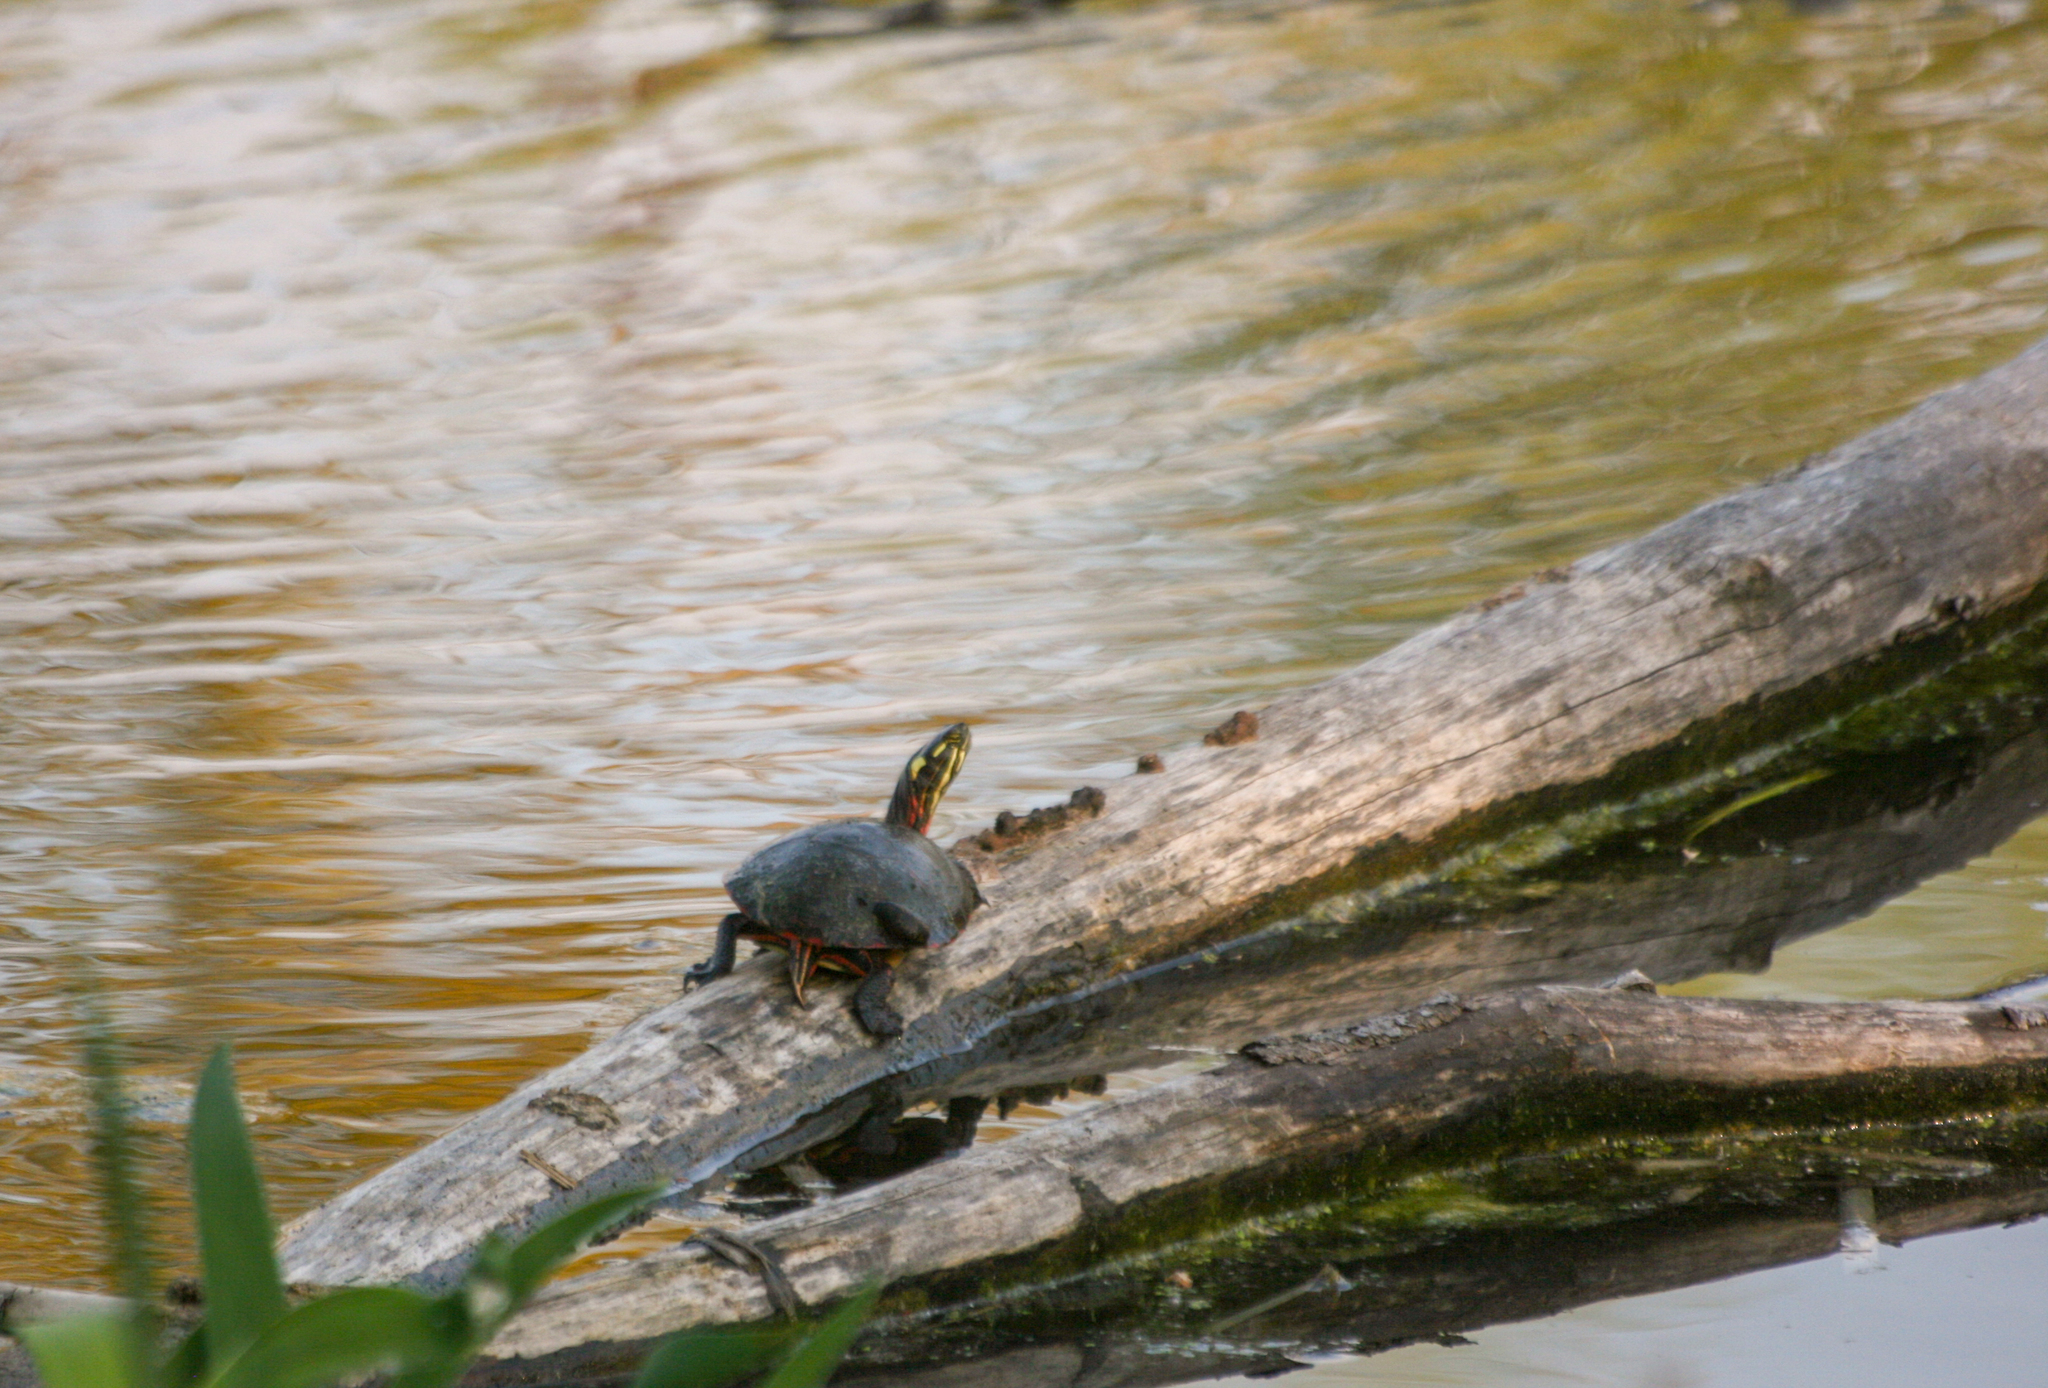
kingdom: Animalia
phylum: Chordata
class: Testudines
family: Emydidae
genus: Chrysemys
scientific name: Chrysemys picta
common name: Painted turtle
